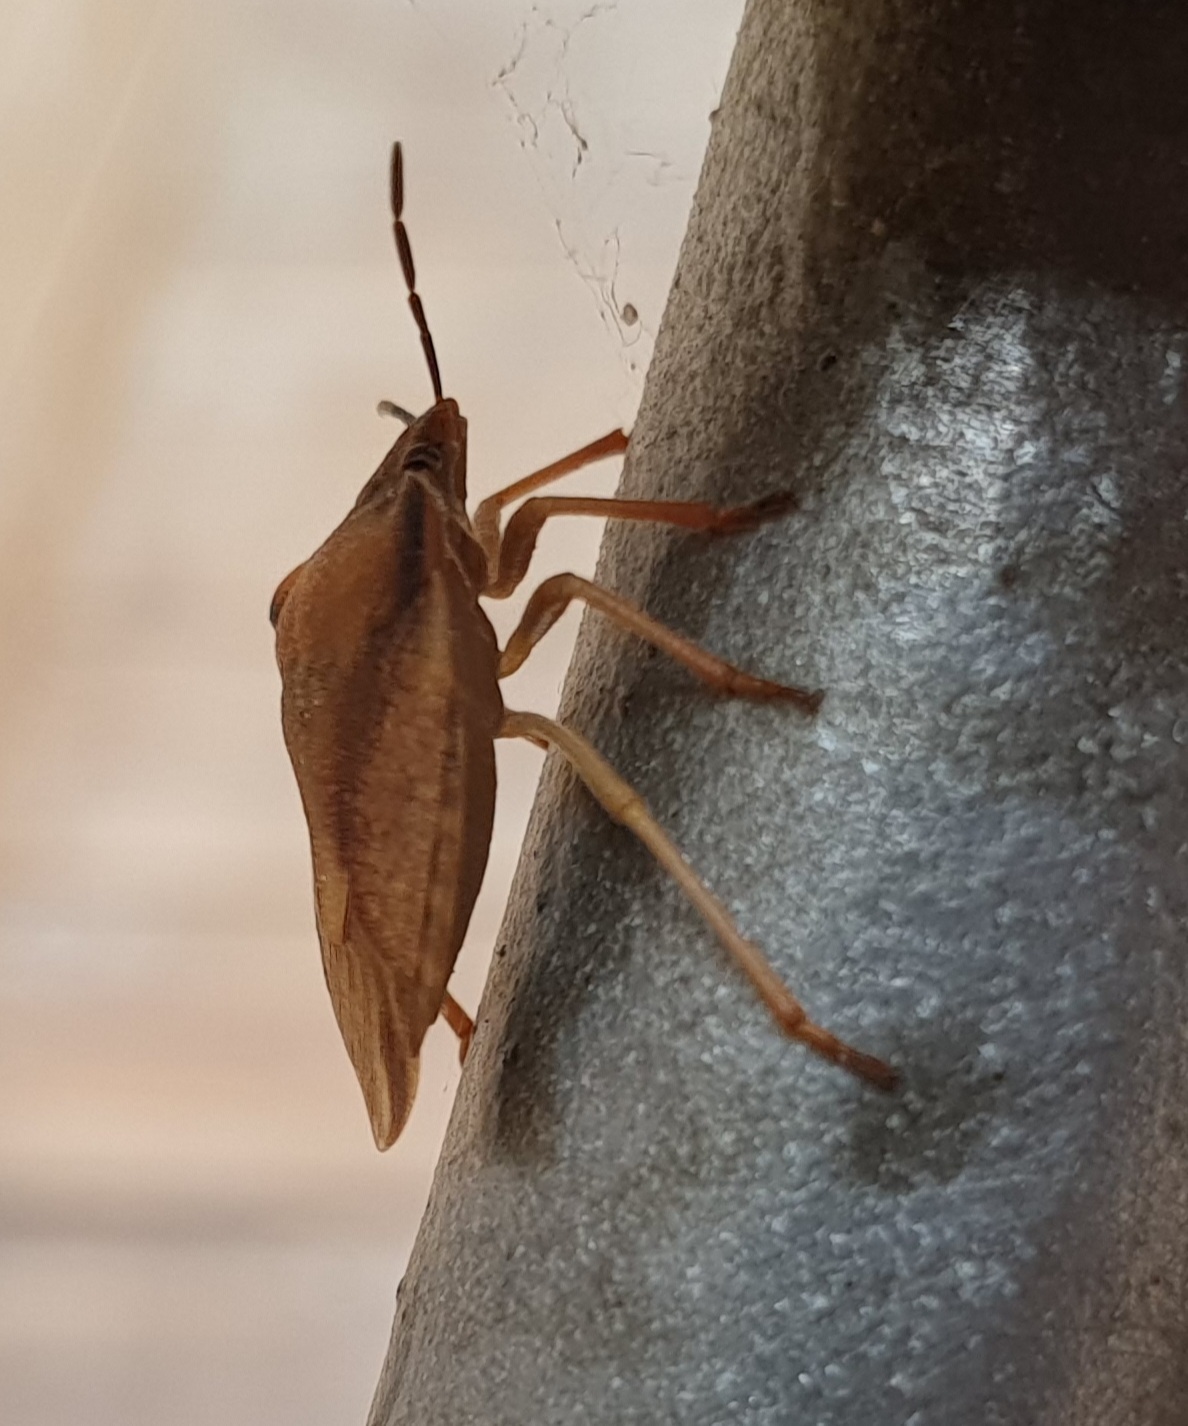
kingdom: Animalia
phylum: Arthropoda
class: Insecta
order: Hemiptera
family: Pentatomidae
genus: Carpocoris
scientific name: Carpocoris fuscispinus
